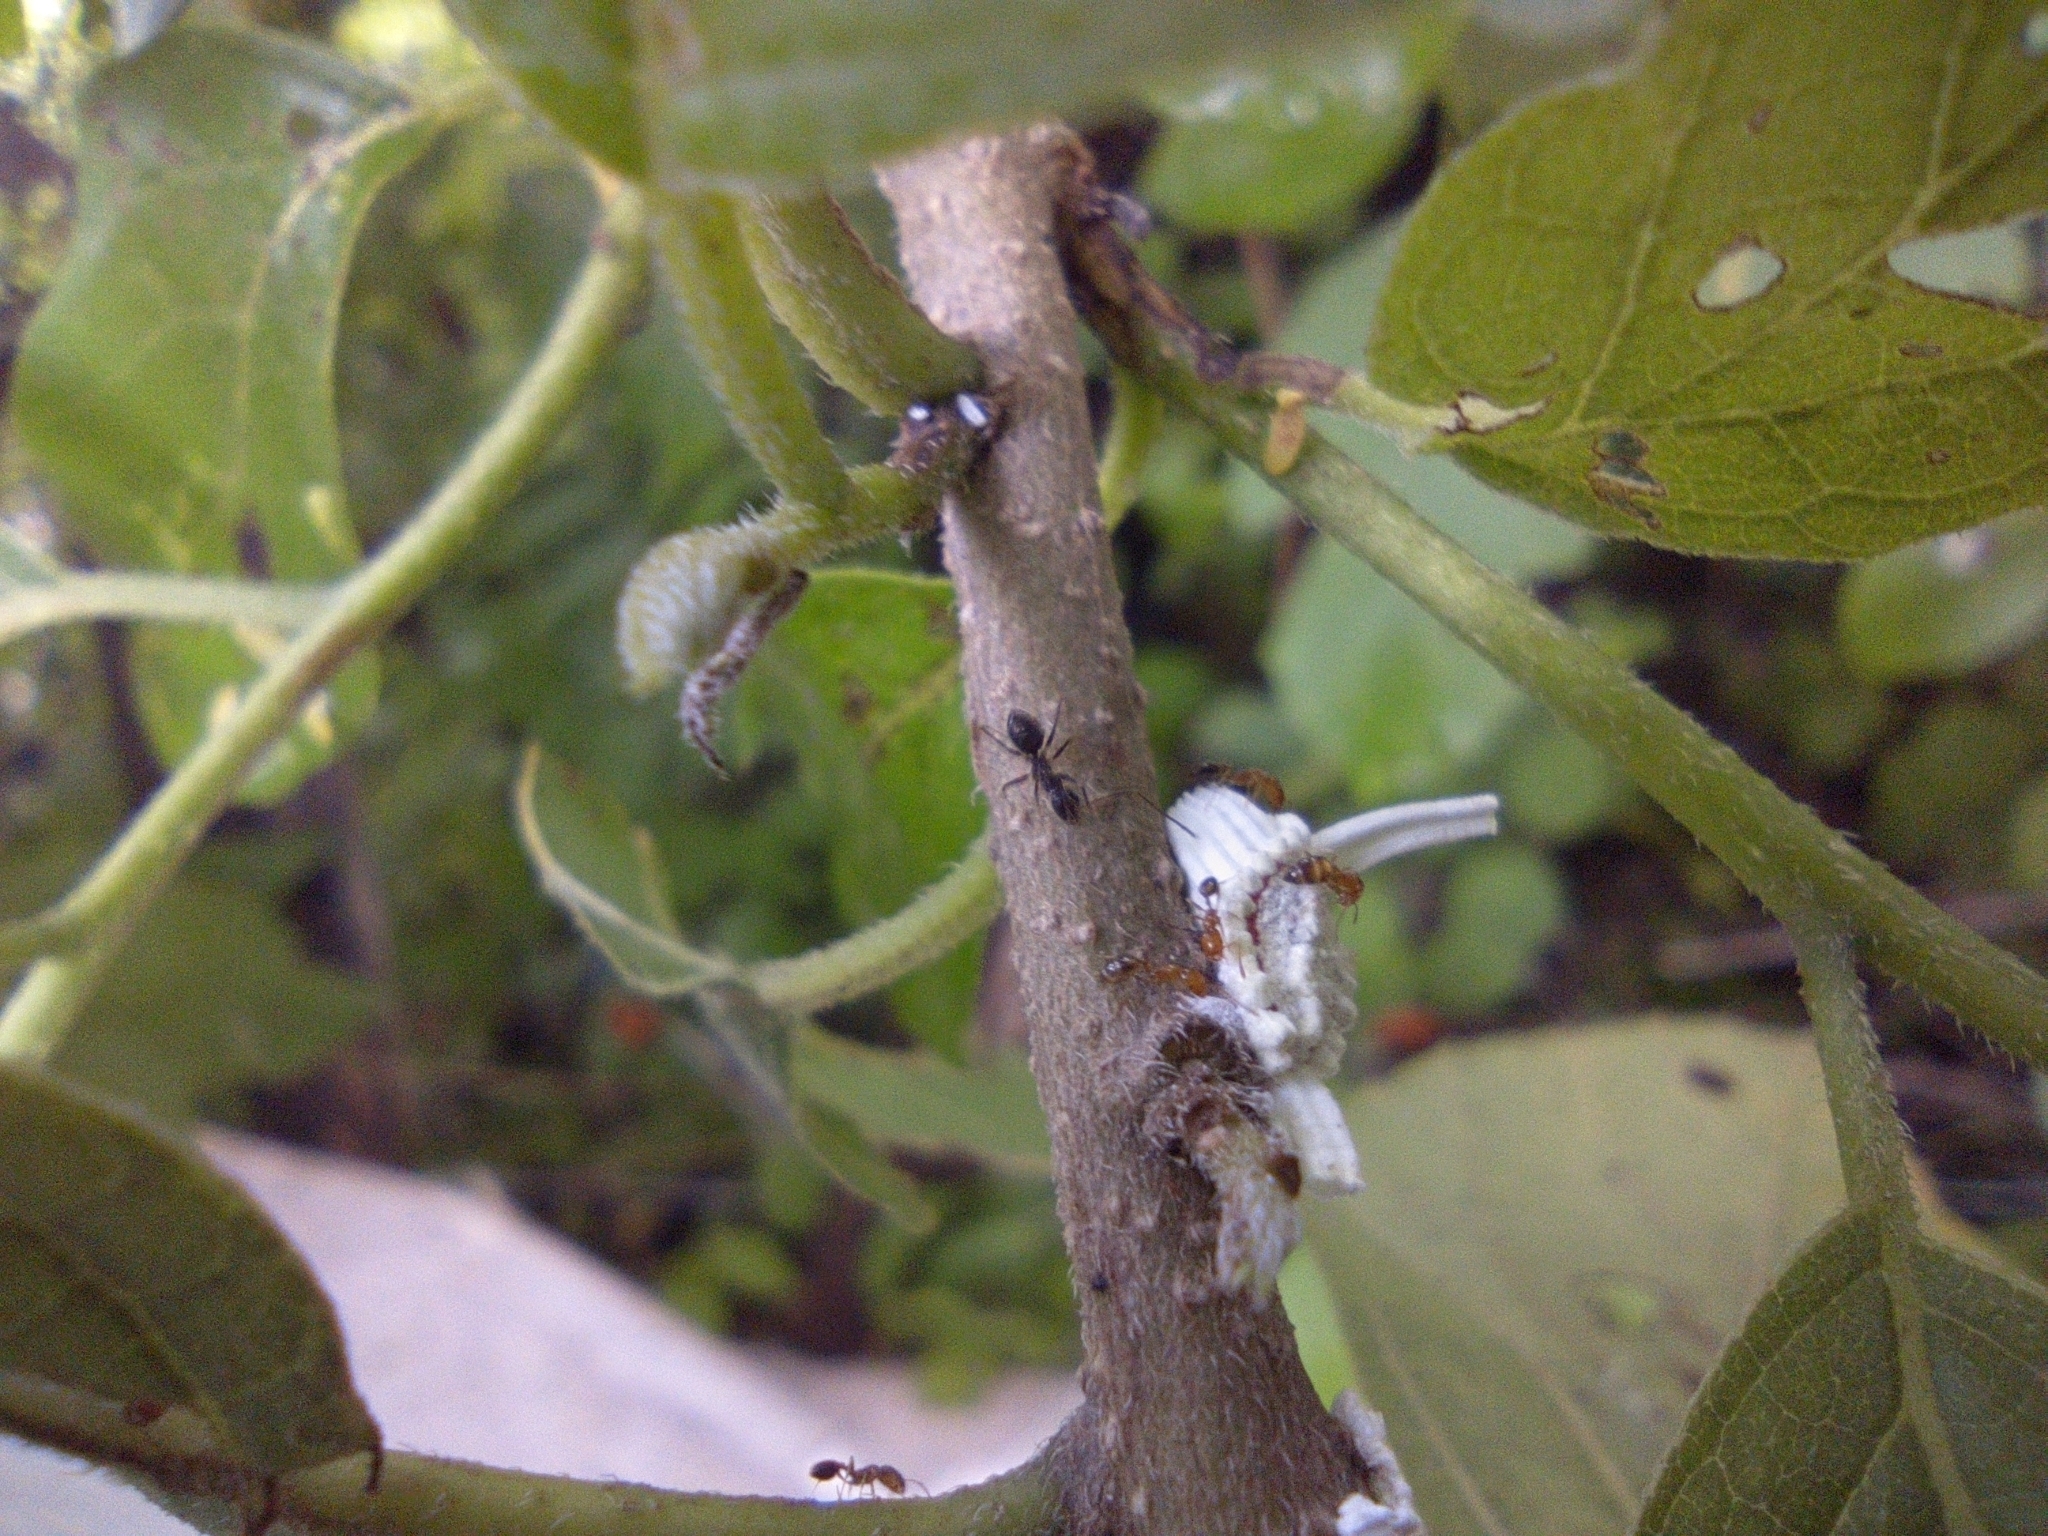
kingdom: Animalia
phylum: Arthropoda
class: Insecta
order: Hymenoptera
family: Formicidae
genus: Paratrechina
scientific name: Paratrechina longicornis
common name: Longhorned crazy ant
